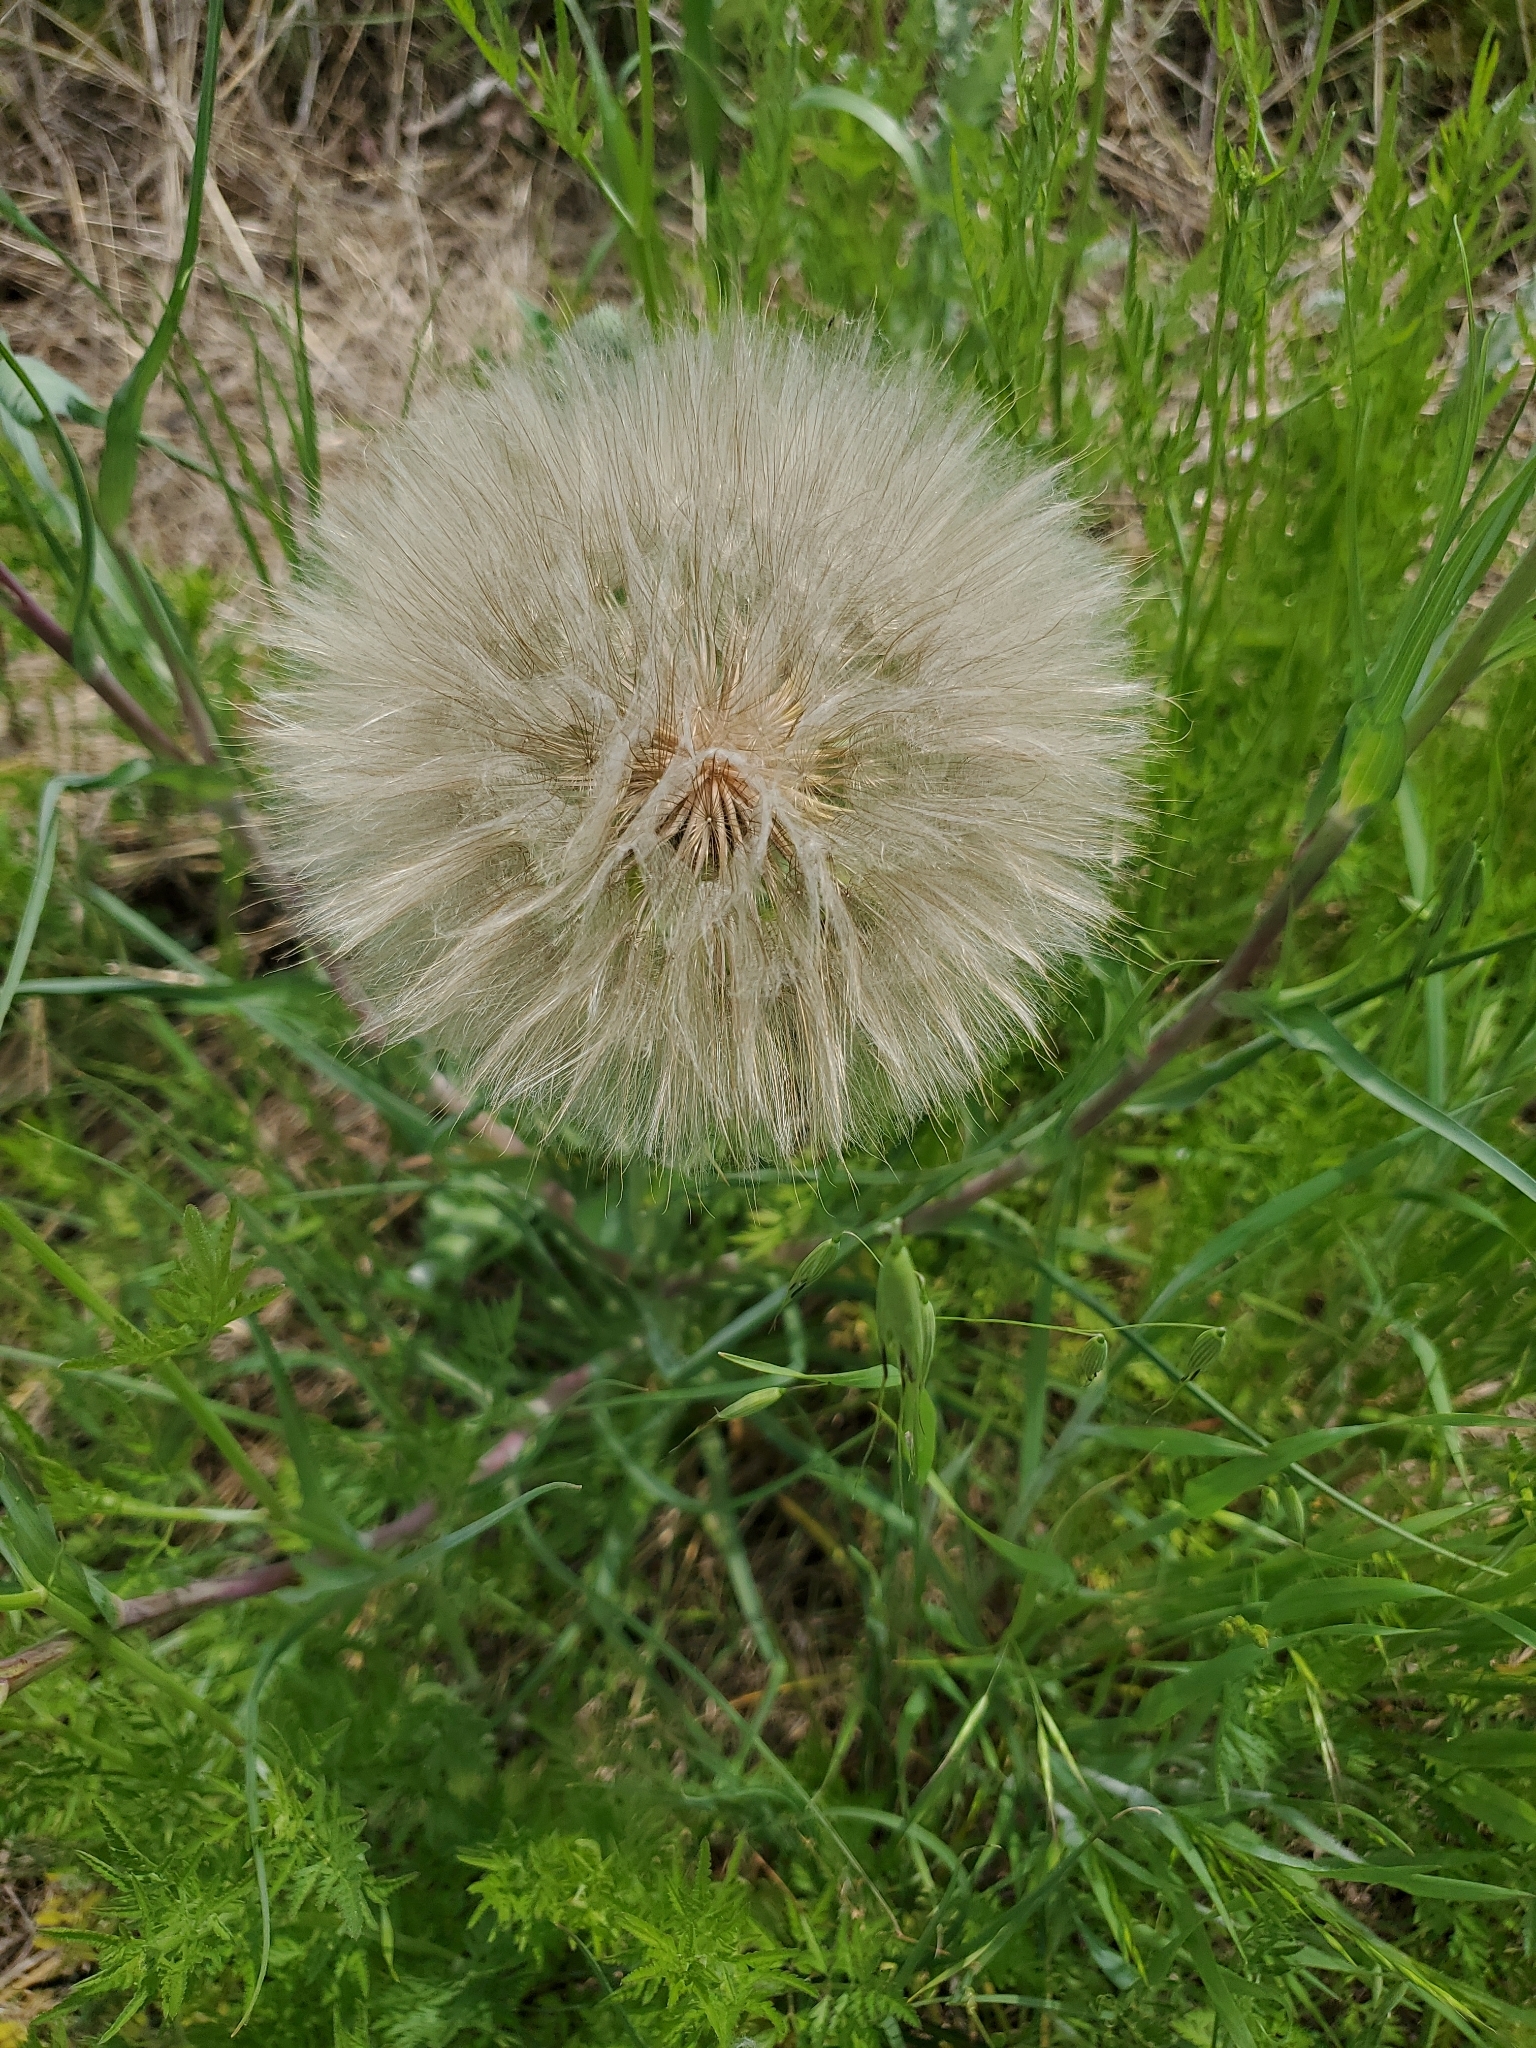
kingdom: Plantae
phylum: Tracheophyta
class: Magnoliopsida
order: Asterales
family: Asteraceae
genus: Tragopogon
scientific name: Tragopogon dubius
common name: Yellow salsify
